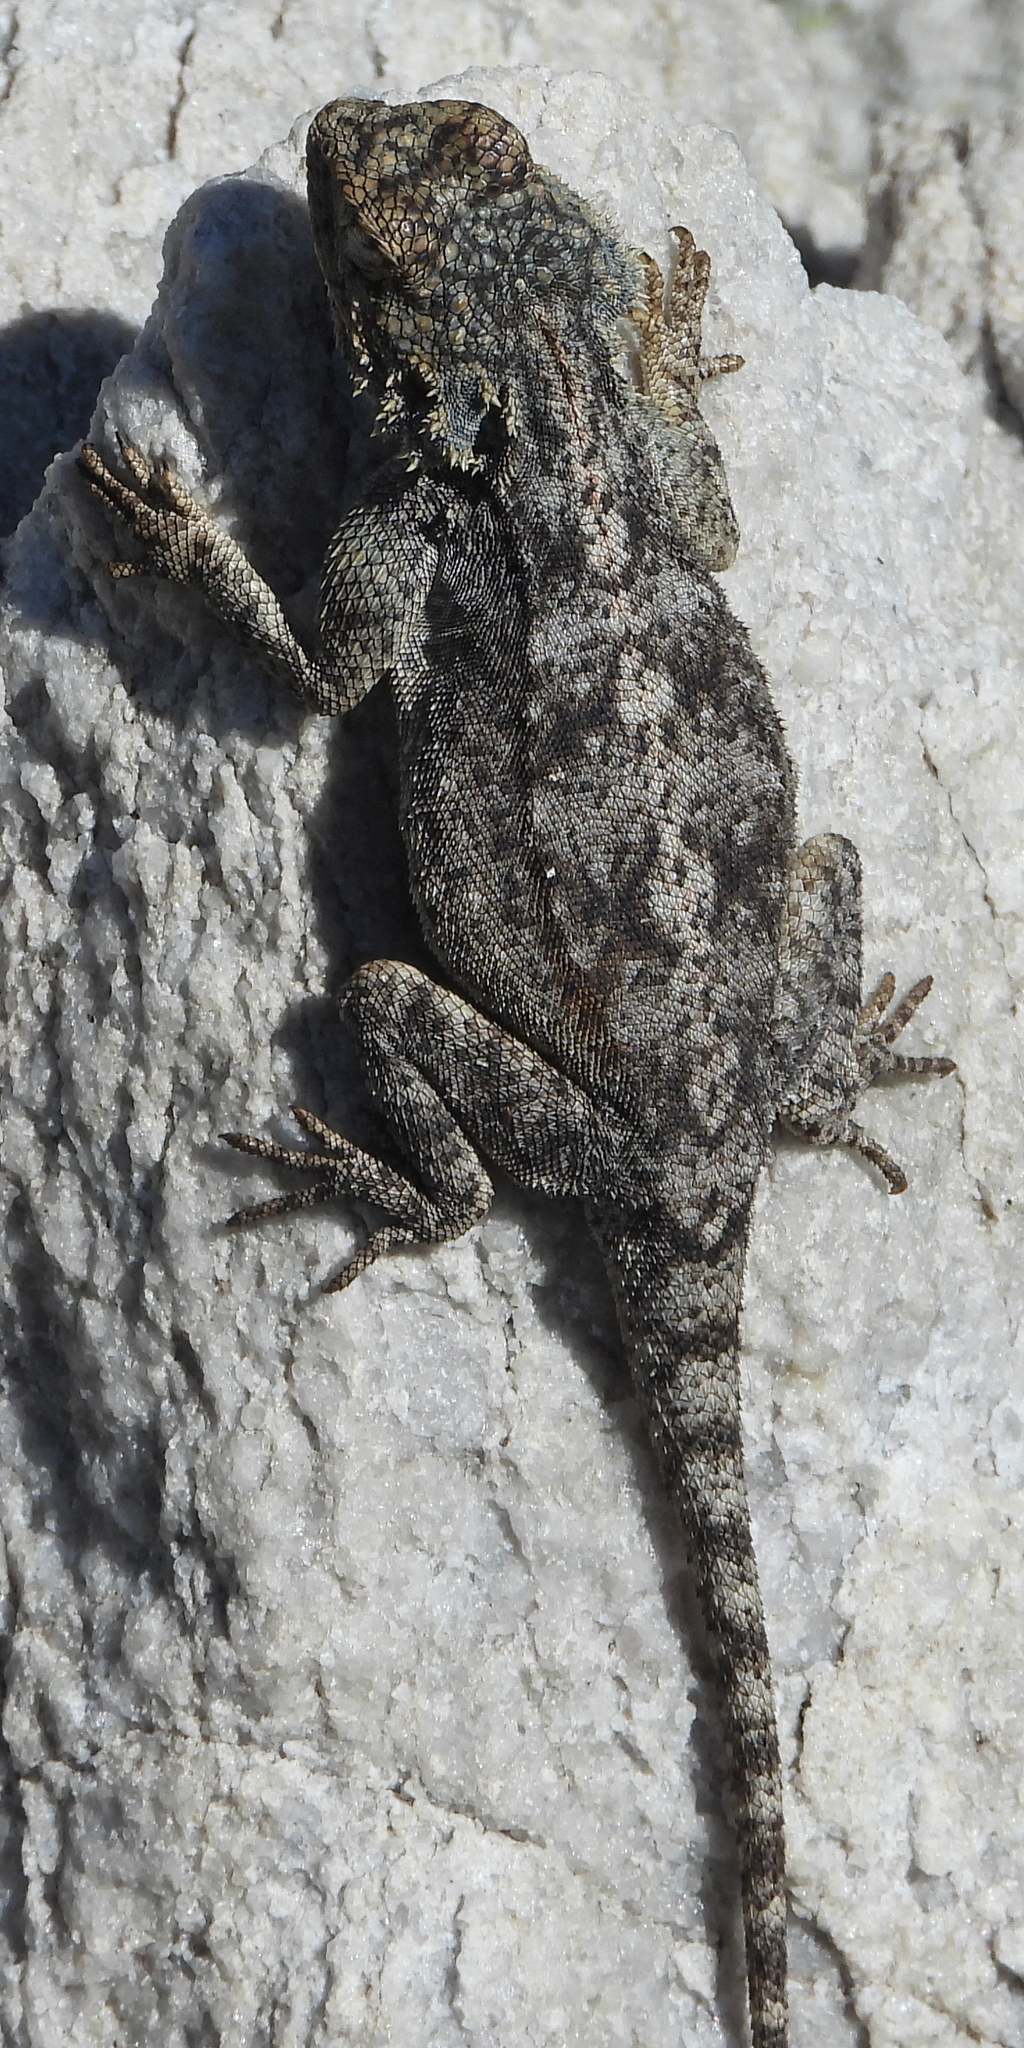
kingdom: Animalia
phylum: Chordata
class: Squamata
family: Agamidae
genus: Agama
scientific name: Agama atra
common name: Southern african rock agama
